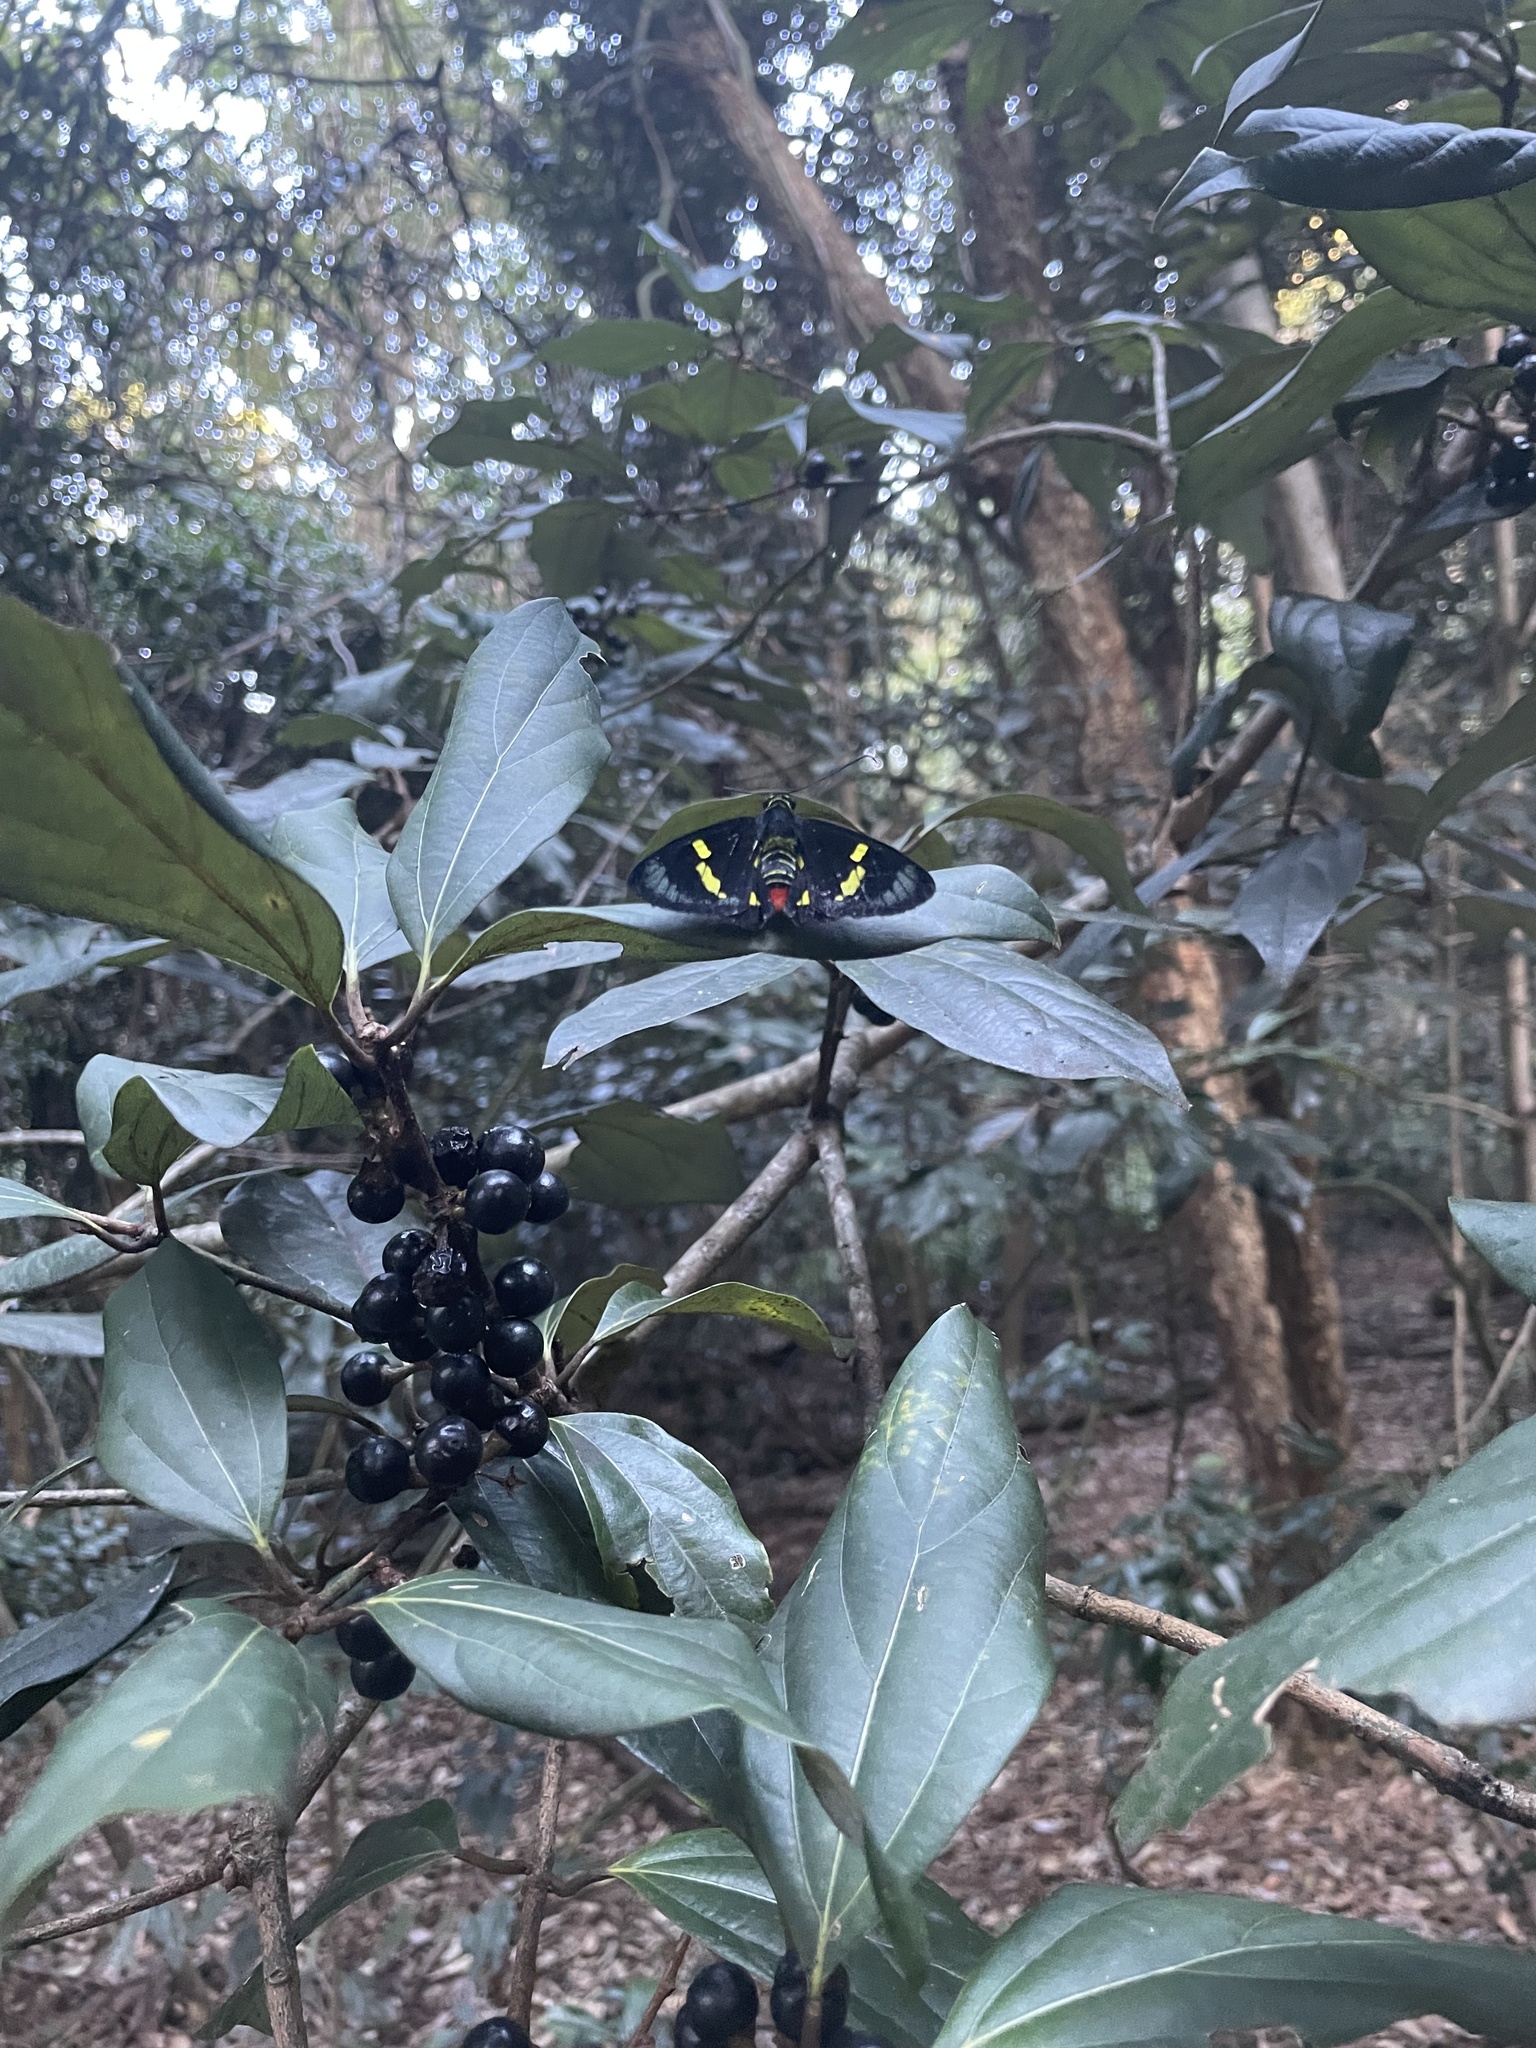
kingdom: Animalia
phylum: Arthropoda
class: Insecta
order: Lepidoptera
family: Hesperiidae
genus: Euschemon
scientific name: Euschemon rafflesia
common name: Regent skipper
